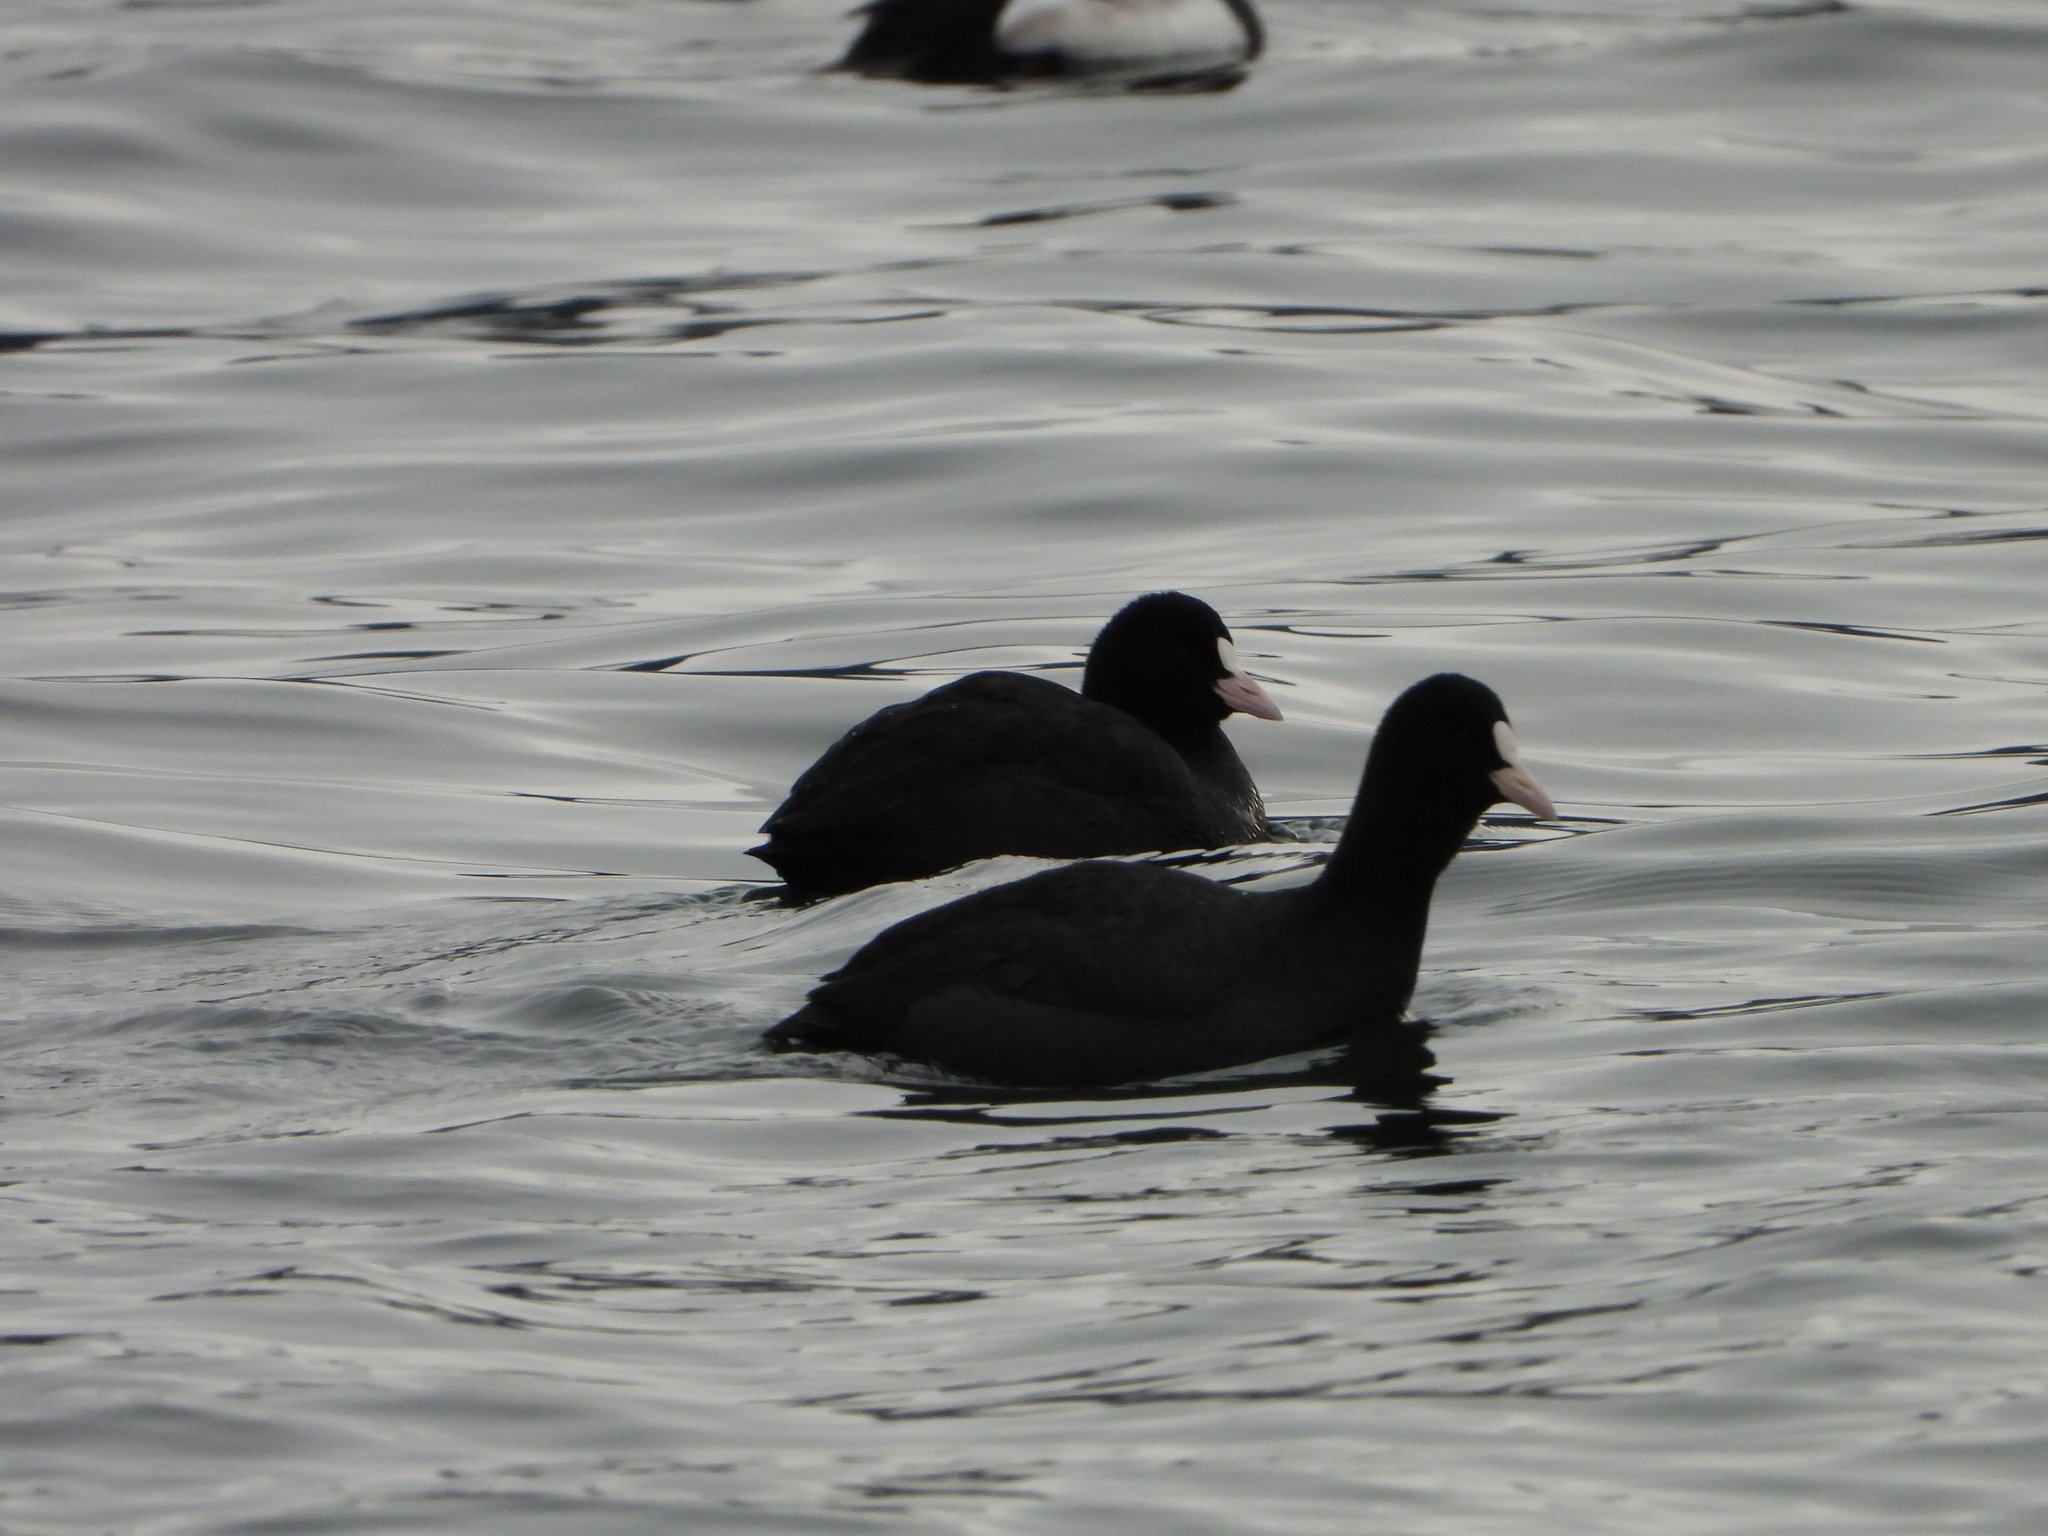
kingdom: Animalia
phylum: Chordata
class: Aves
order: Gruiformes
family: Rallidae
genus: Fulica
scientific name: Fulica atra
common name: Eurasian coot
